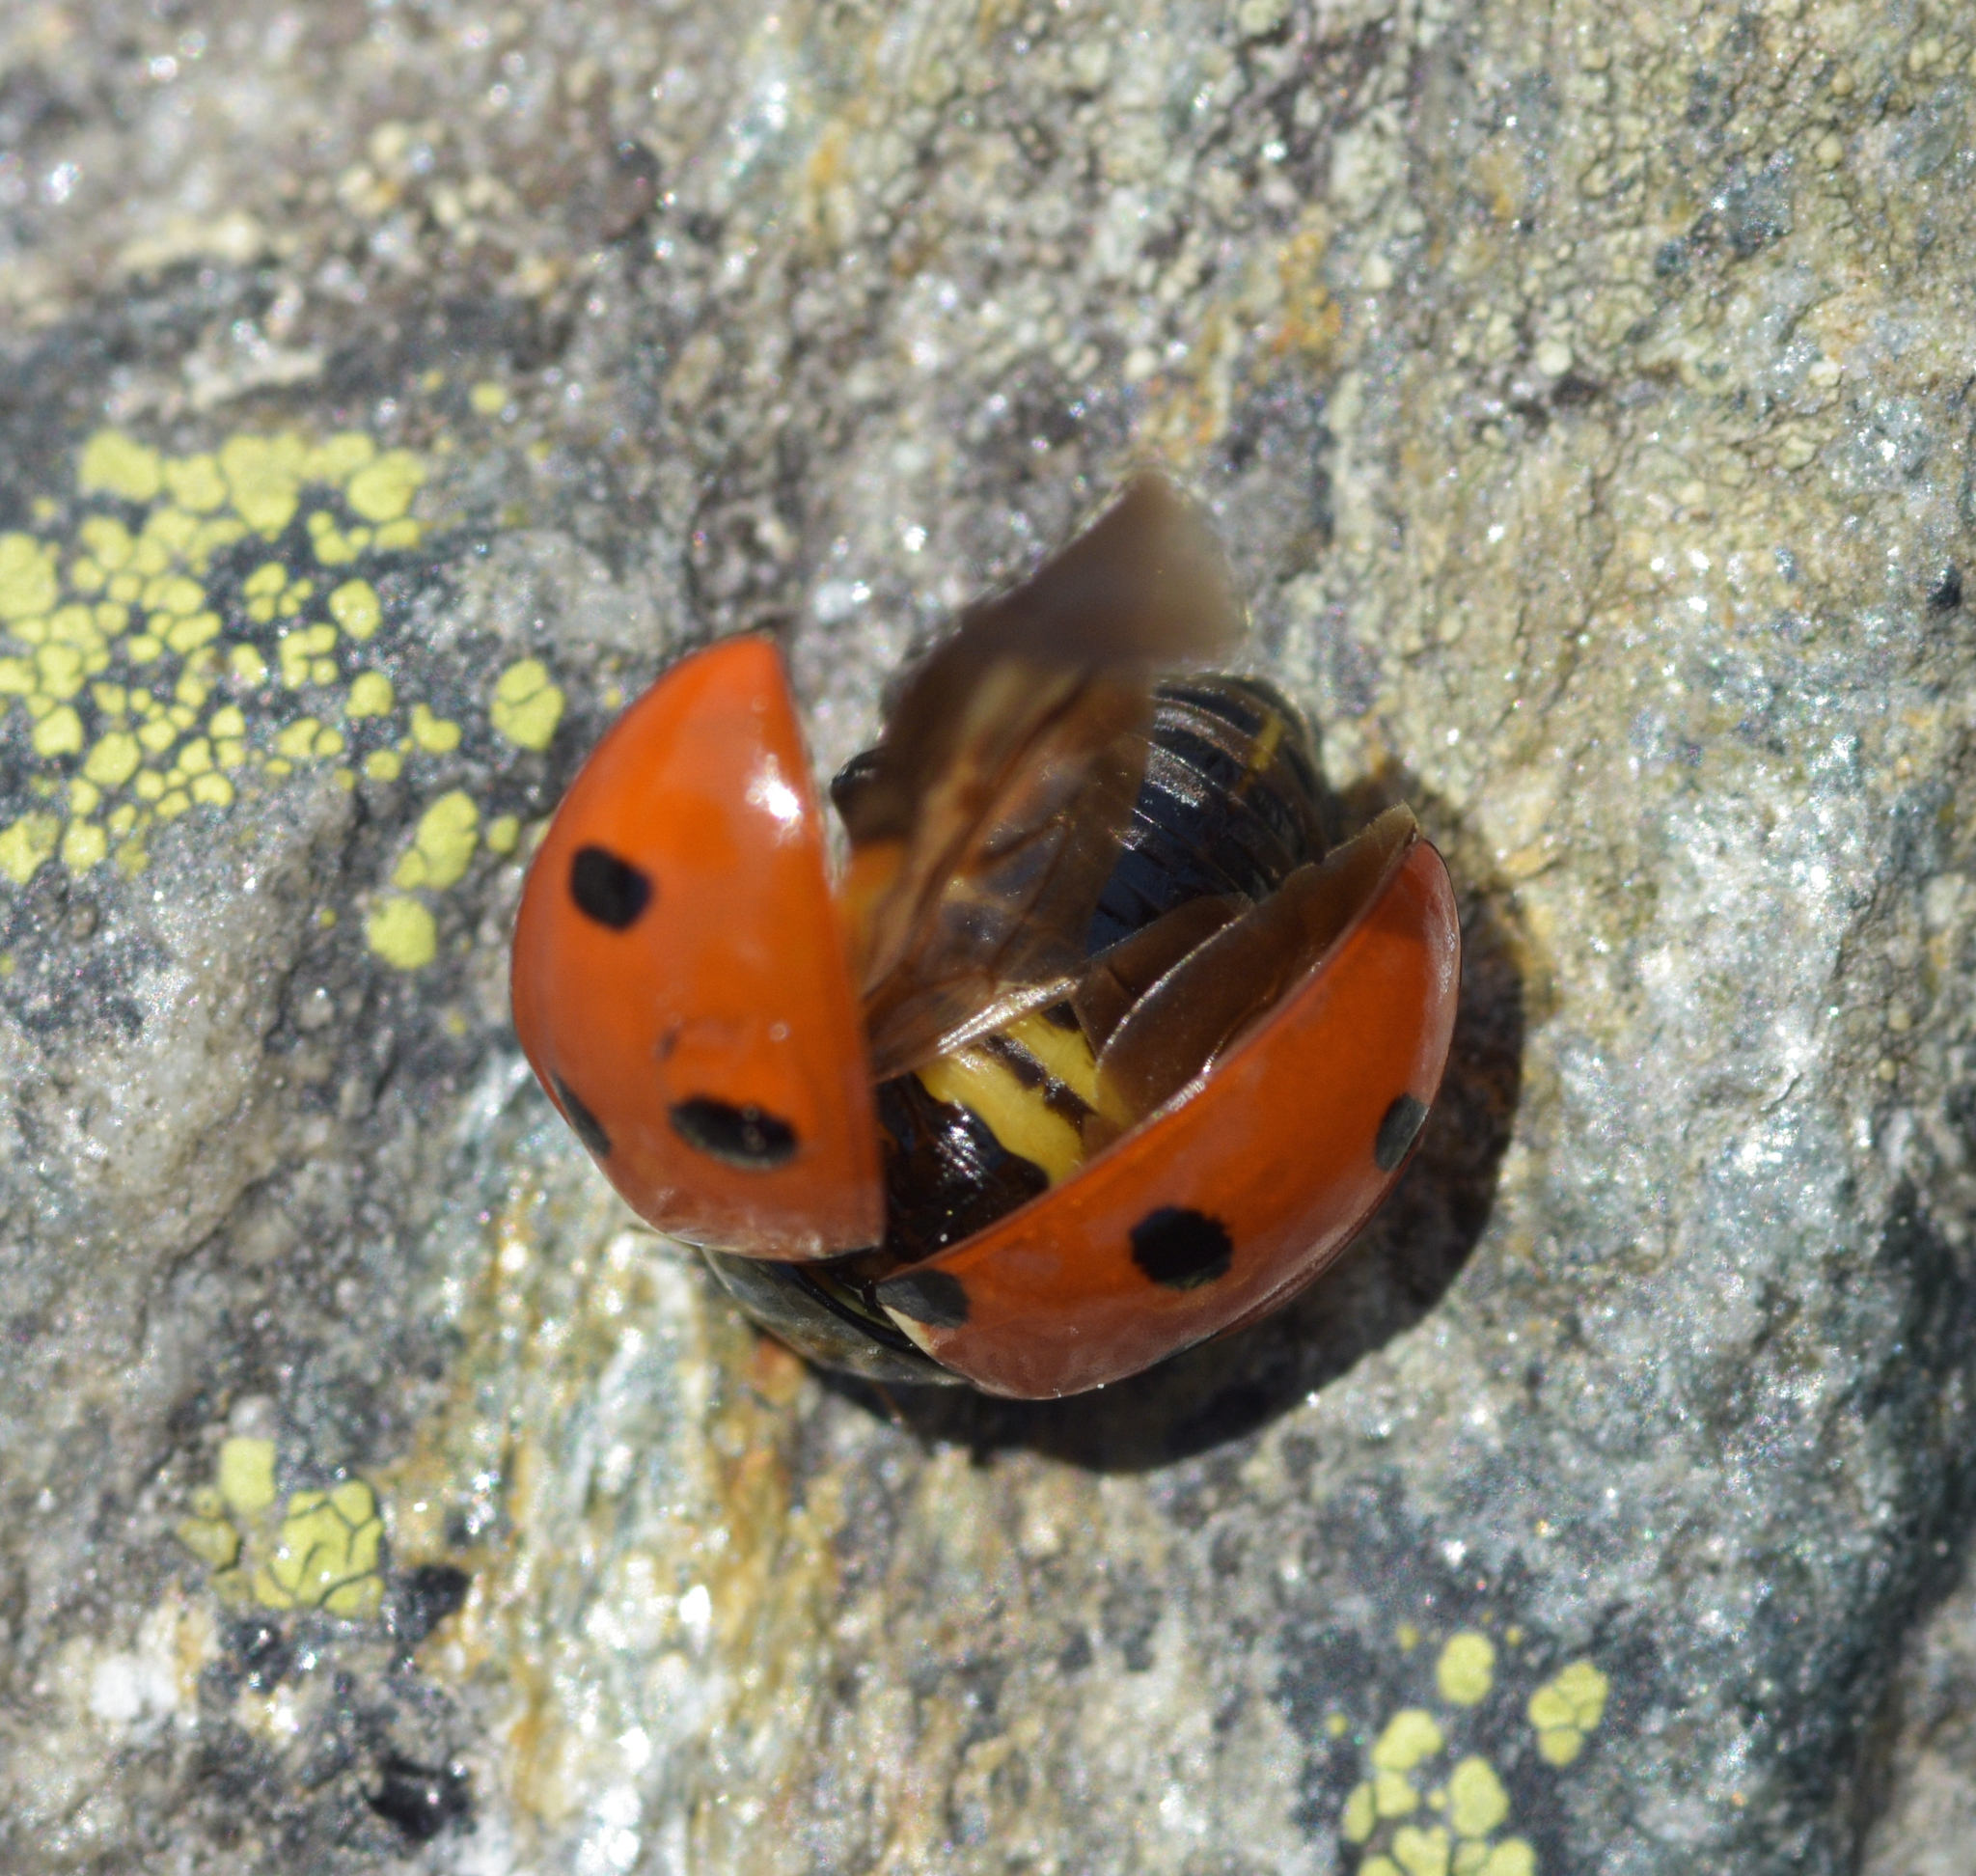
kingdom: Animalia
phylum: Arthropoda
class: Insecta
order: Coleoptera
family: Coccinellidae
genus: Coccinella
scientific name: Coccinella septempunctata
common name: Sevenspotted lady beetle
